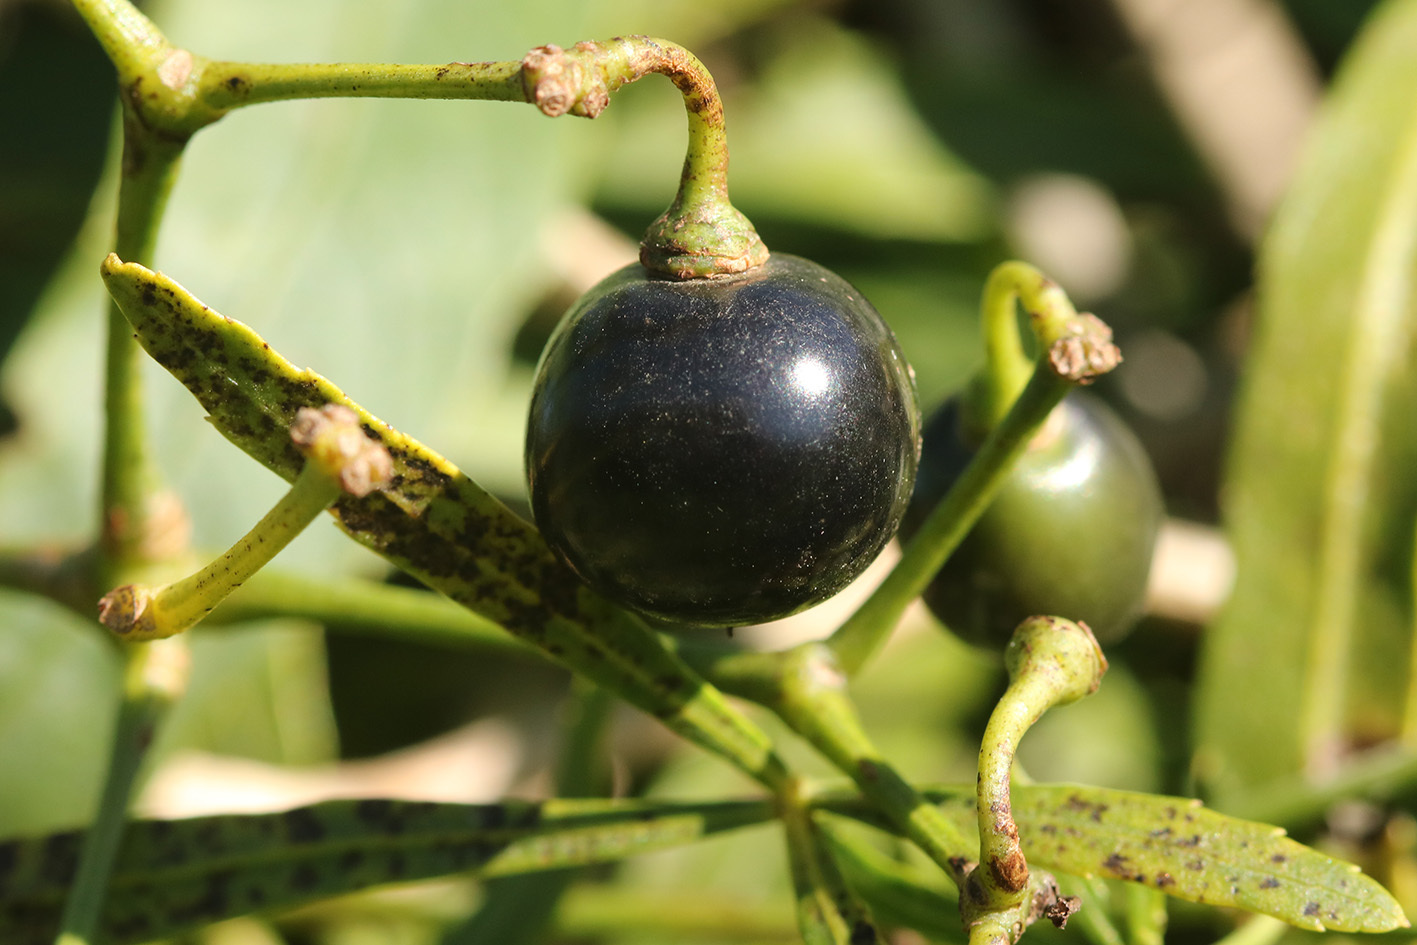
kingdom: Plantae
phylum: Tracheophyta
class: Magnoliopsida
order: Vitales
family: Vitaceae
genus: Cissus
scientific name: Cissus palmata
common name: Grape
